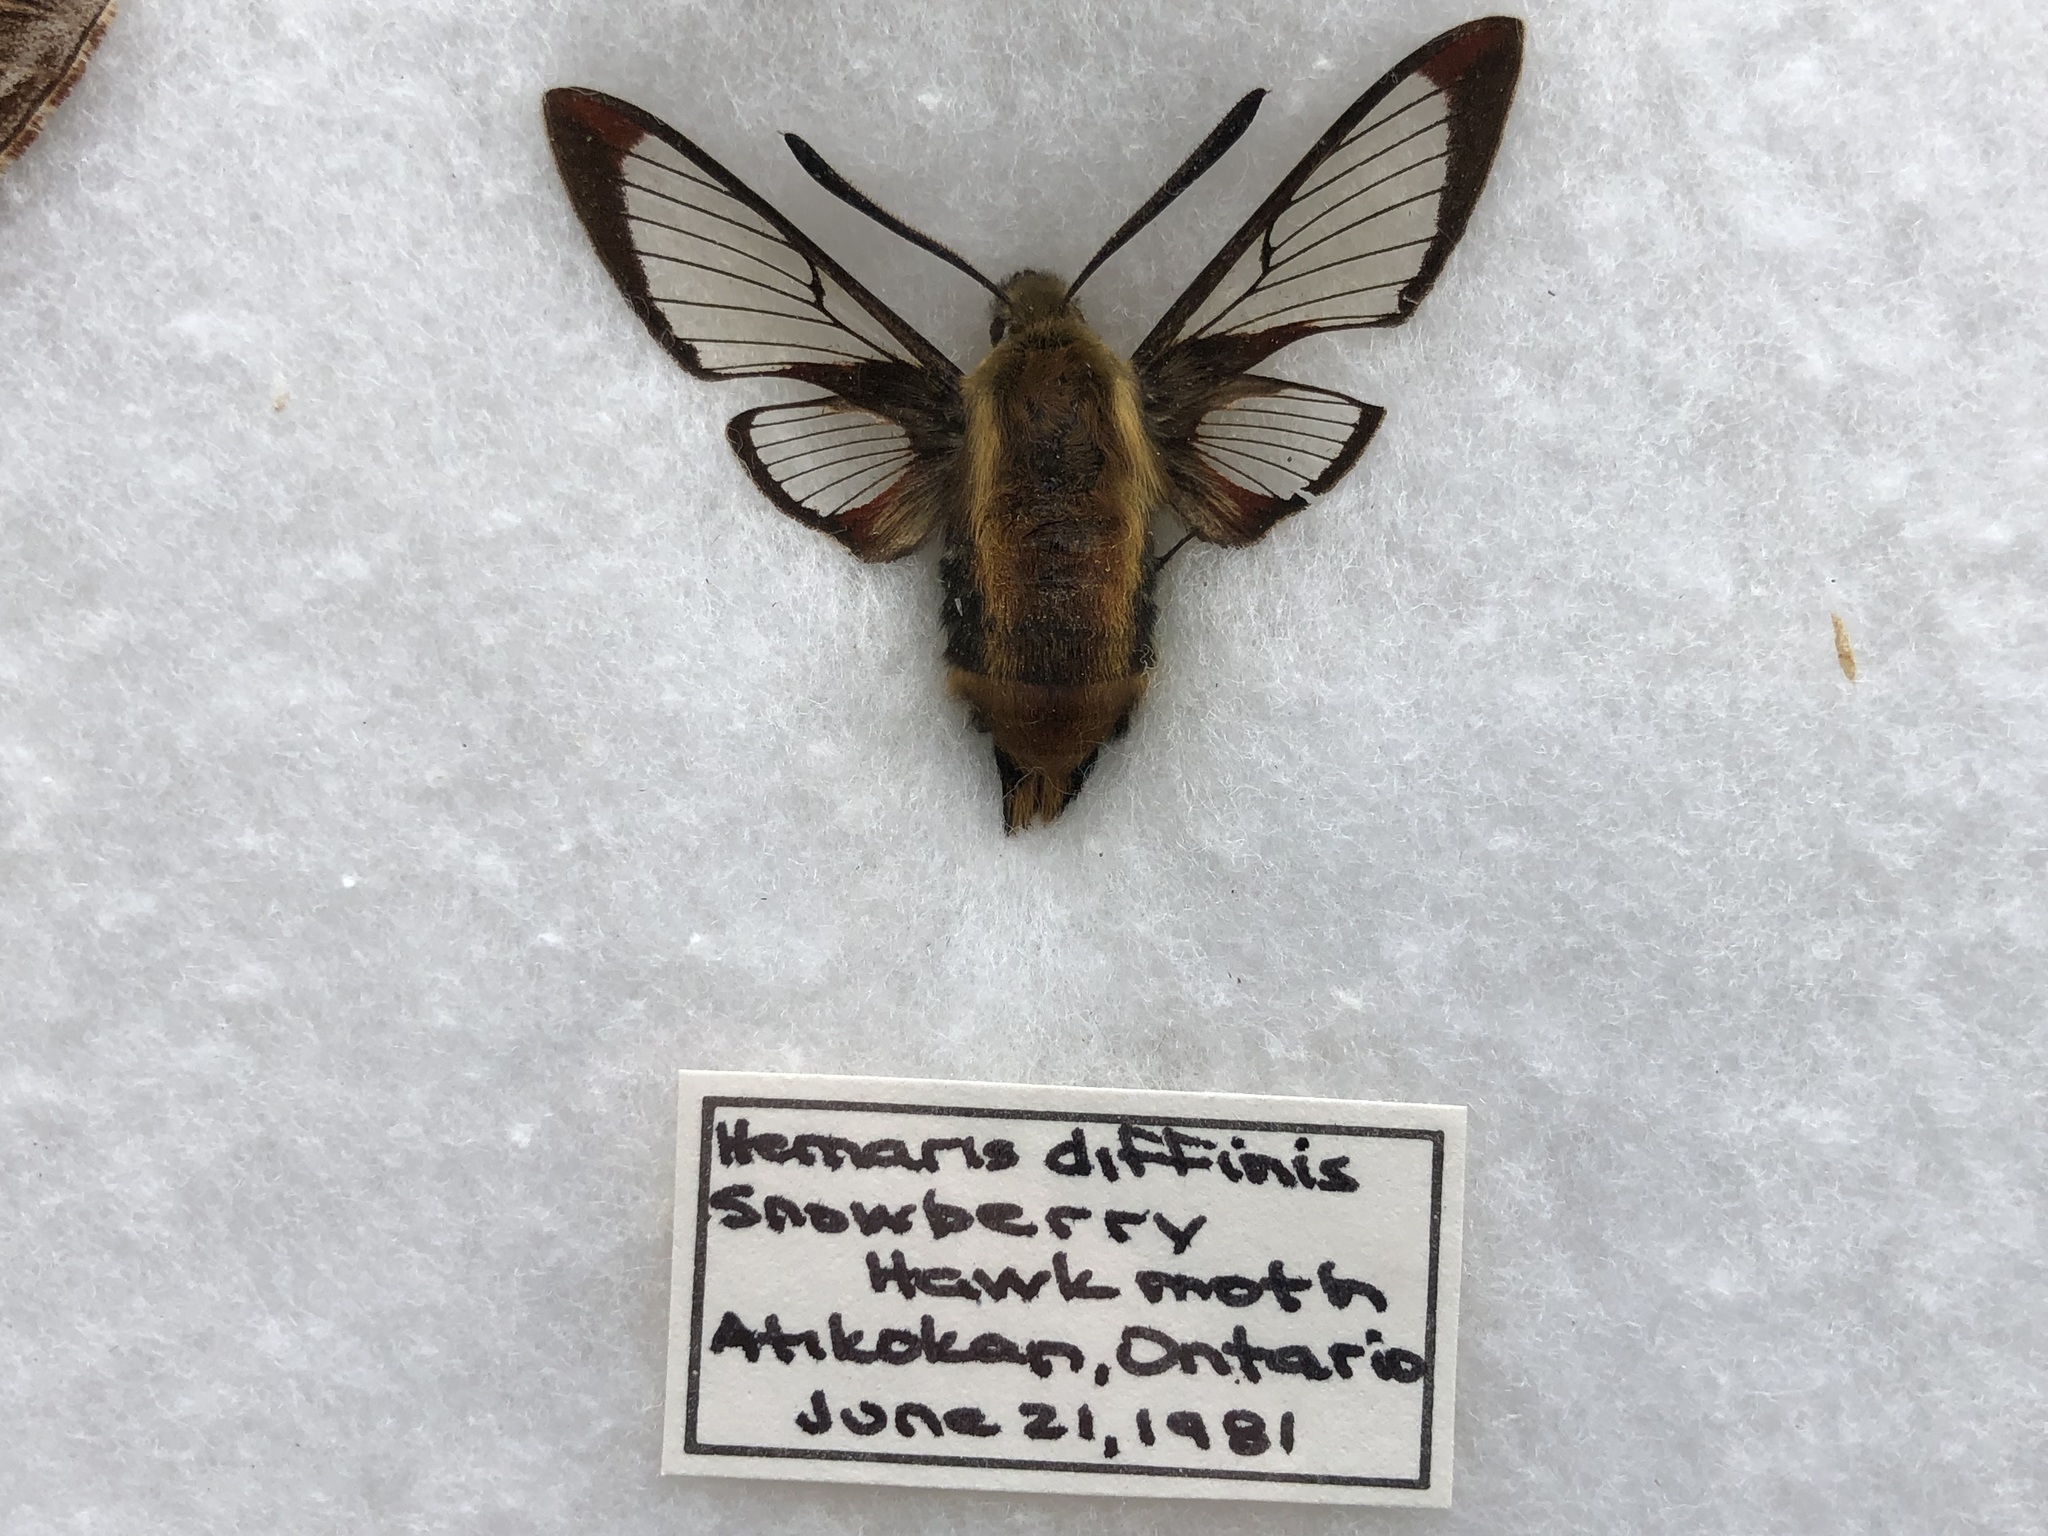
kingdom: Animalia
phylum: Arthropoda
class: Insecta
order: Lepidoptera
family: Sphingidae
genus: Hemaris
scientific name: Hemaris diffinis
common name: Bumblebee moth
